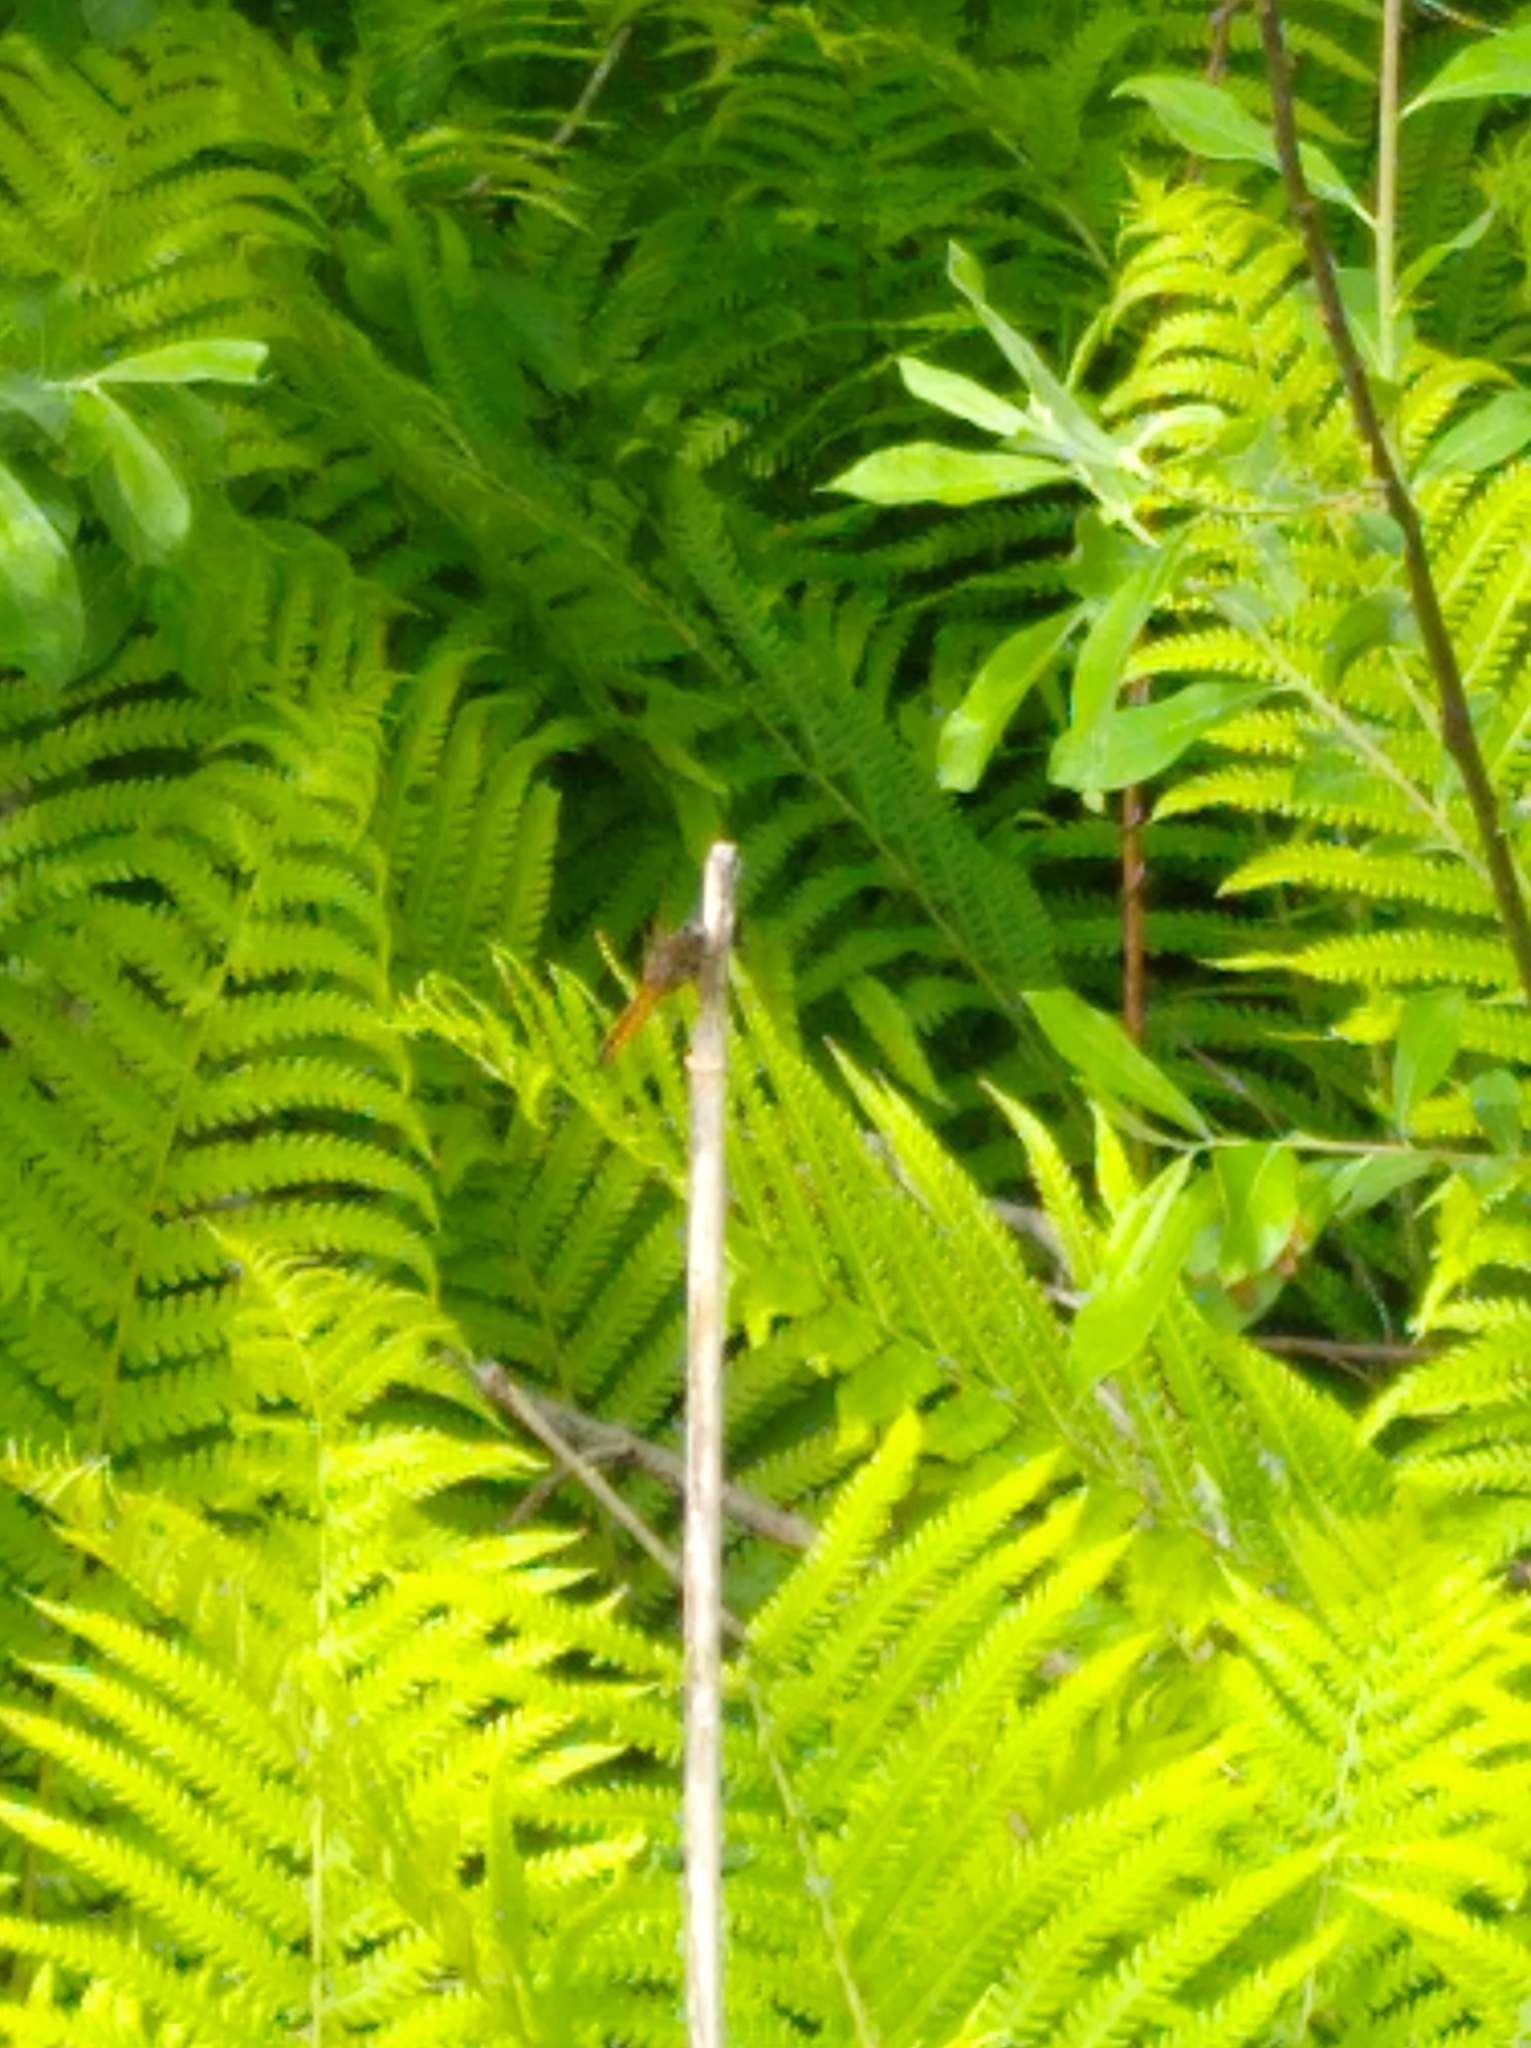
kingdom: Animalia
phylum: Arthropoda
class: Insecta
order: Odonata
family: Libellulidae
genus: Libellula
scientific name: Libellula fulva
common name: Blue chaser
